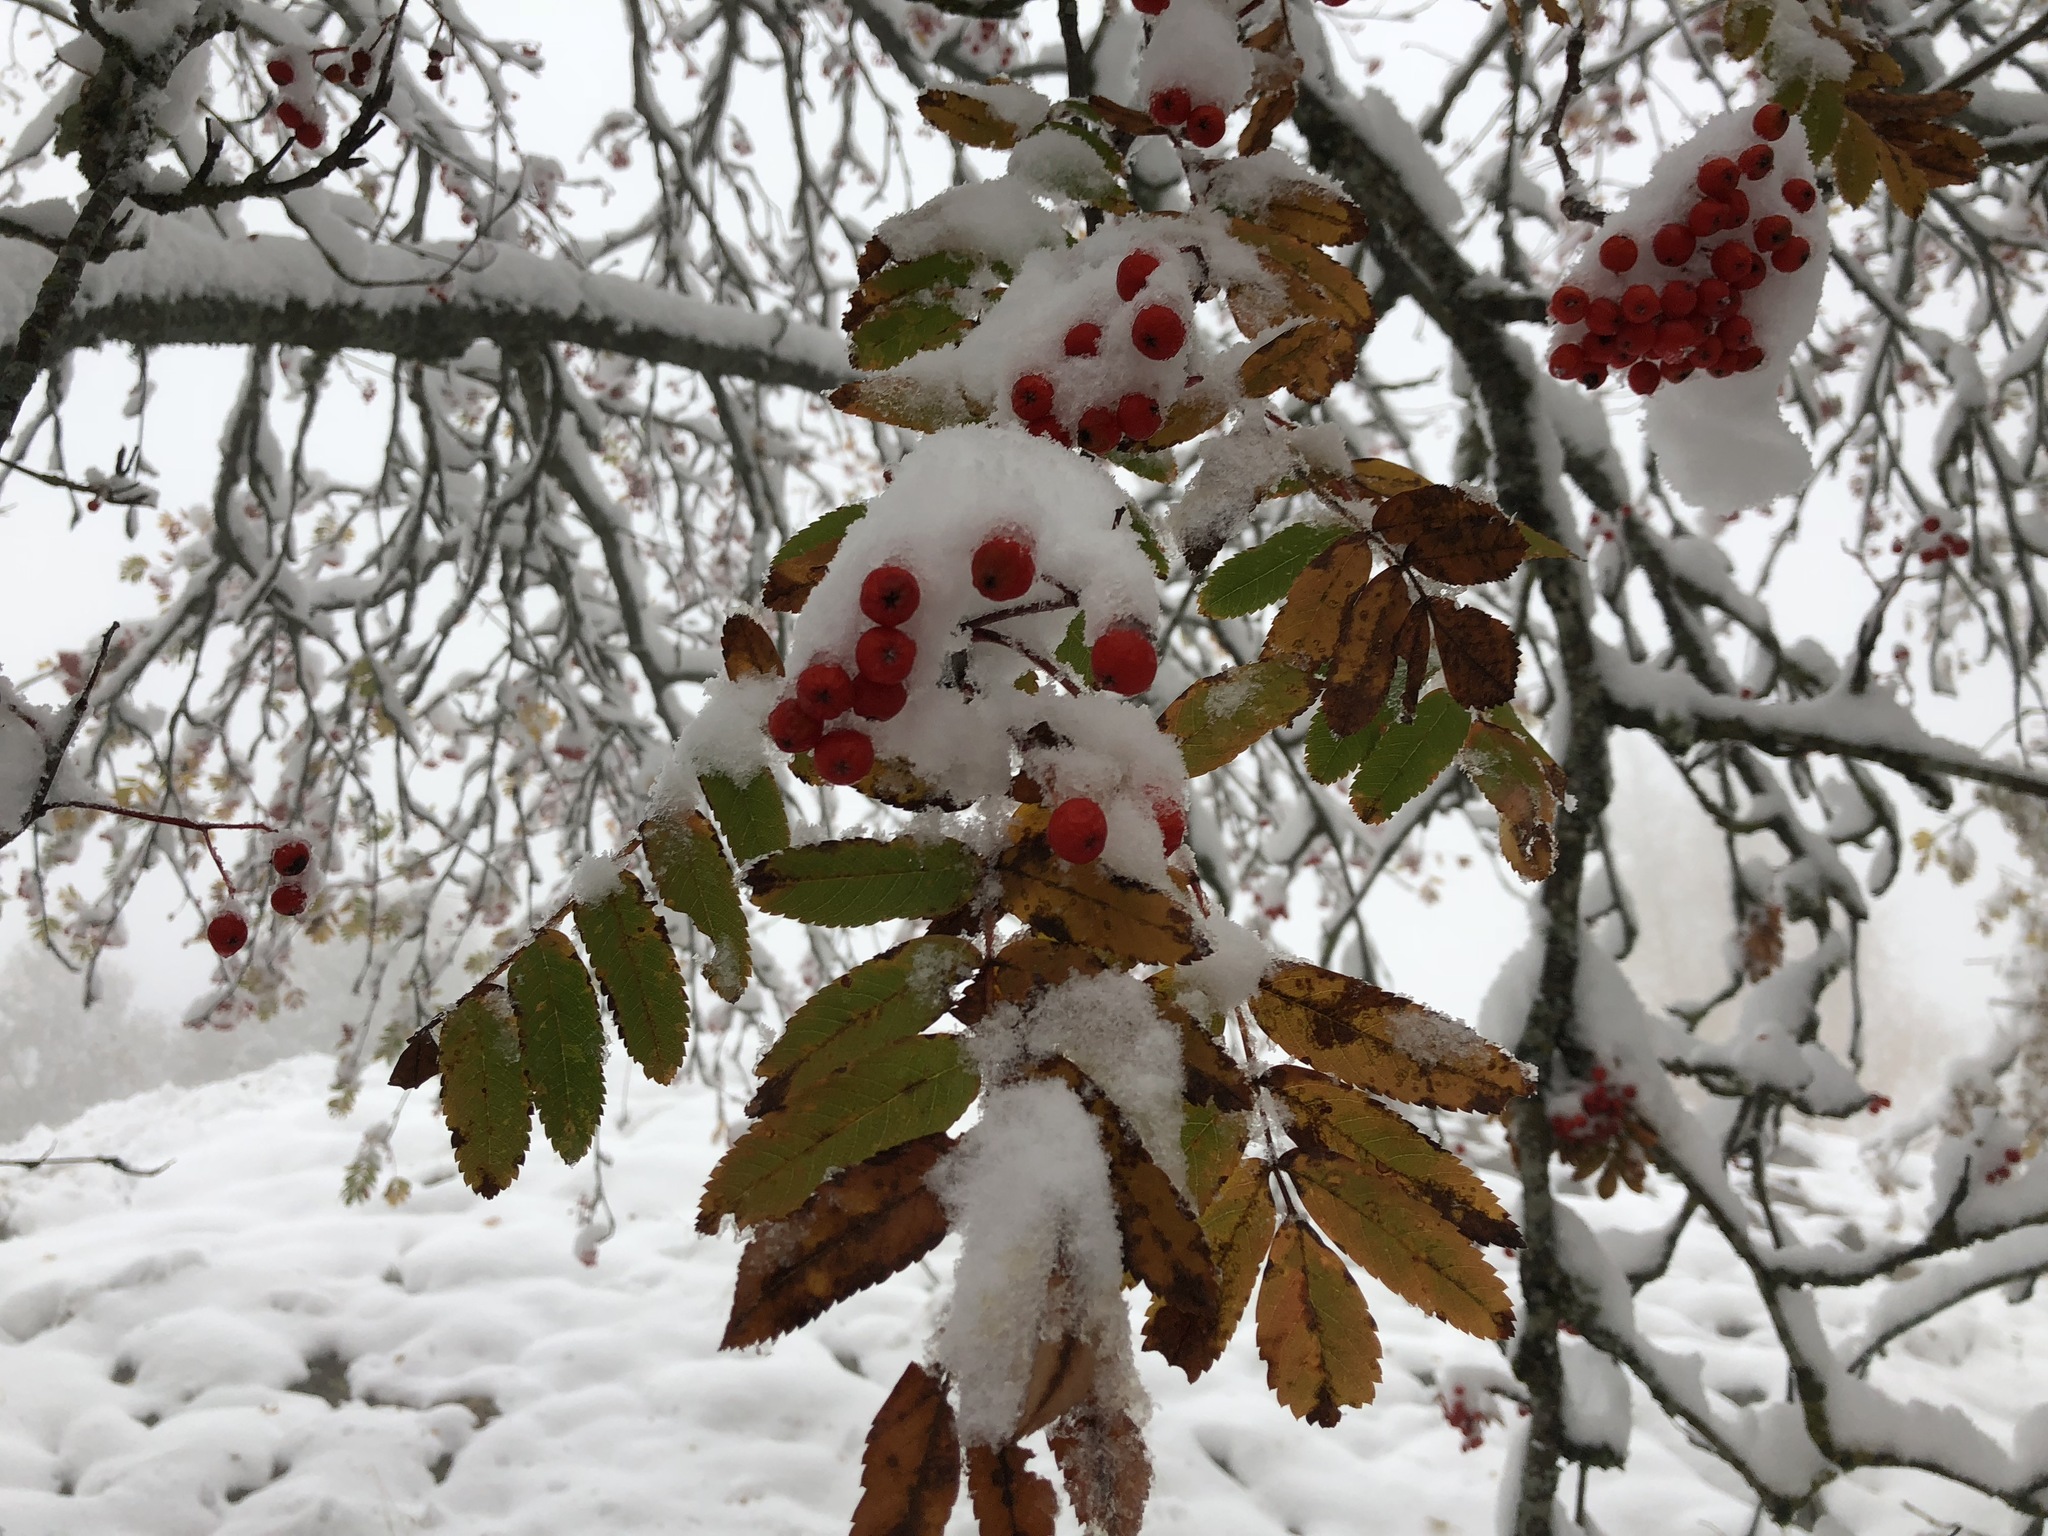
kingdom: Plantae
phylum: Tracheophyta
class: Magnoliopsida
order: Rosales
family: Rosaceae
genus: Sorbus
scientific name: Sorbus aucuparia
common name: Rowan
